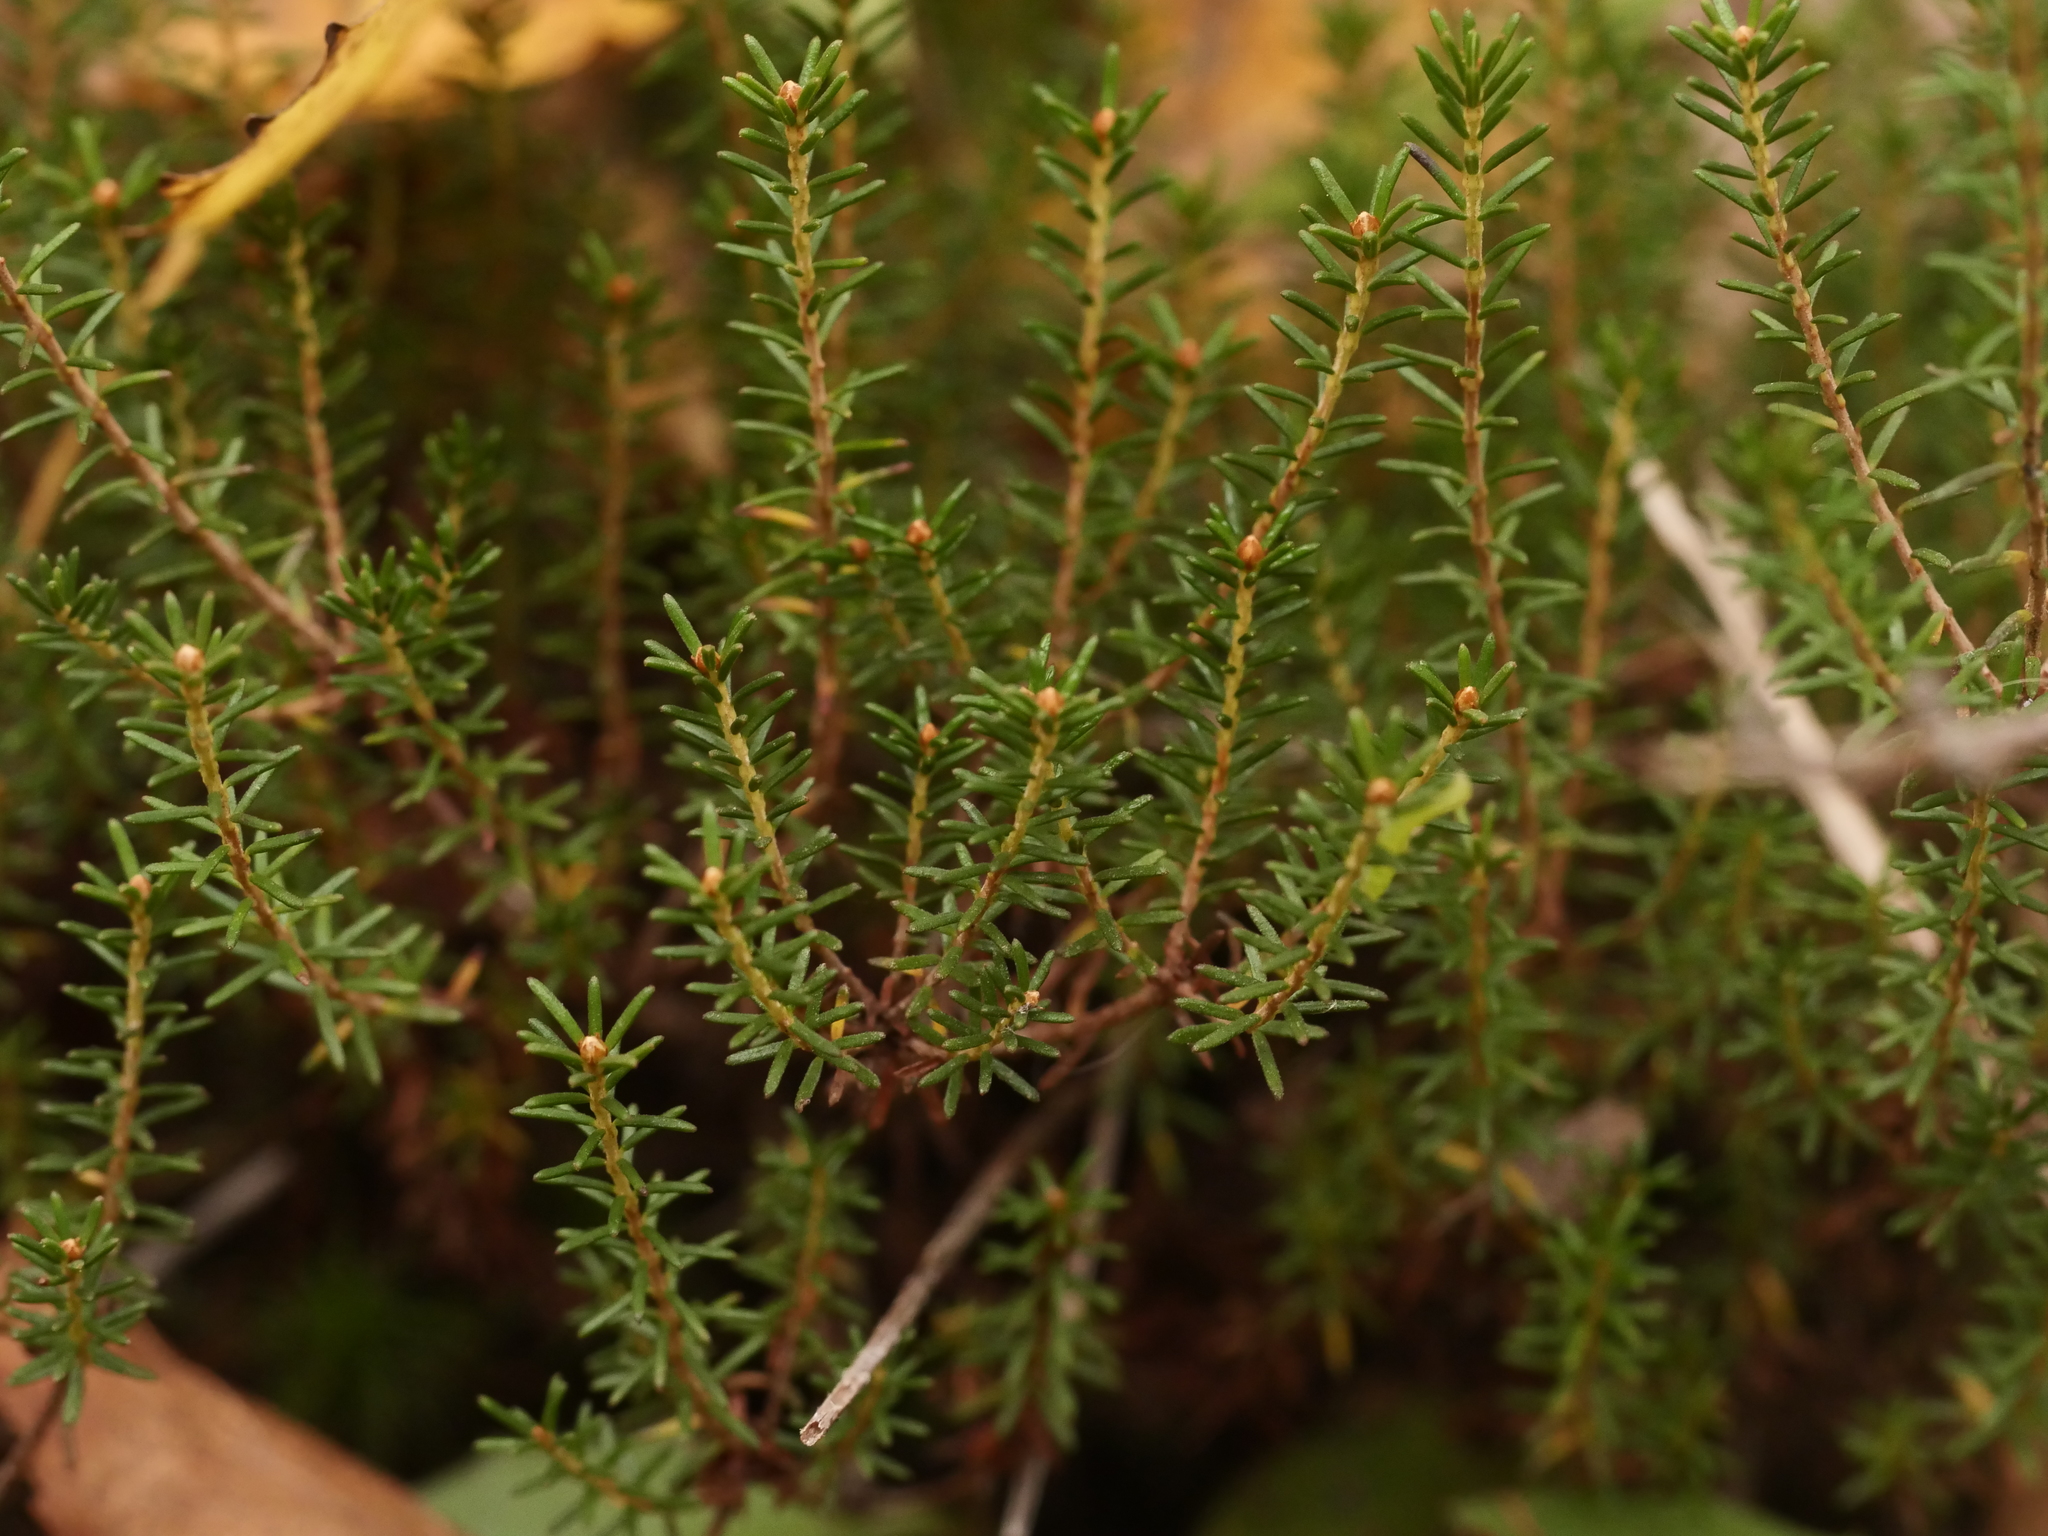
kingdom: Plantae
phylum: Tracheophyta
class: Magnoliopsida
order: Ericales
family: Ericaceae
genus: Corema
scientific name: Corema conradii
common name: Broom-crowberry
